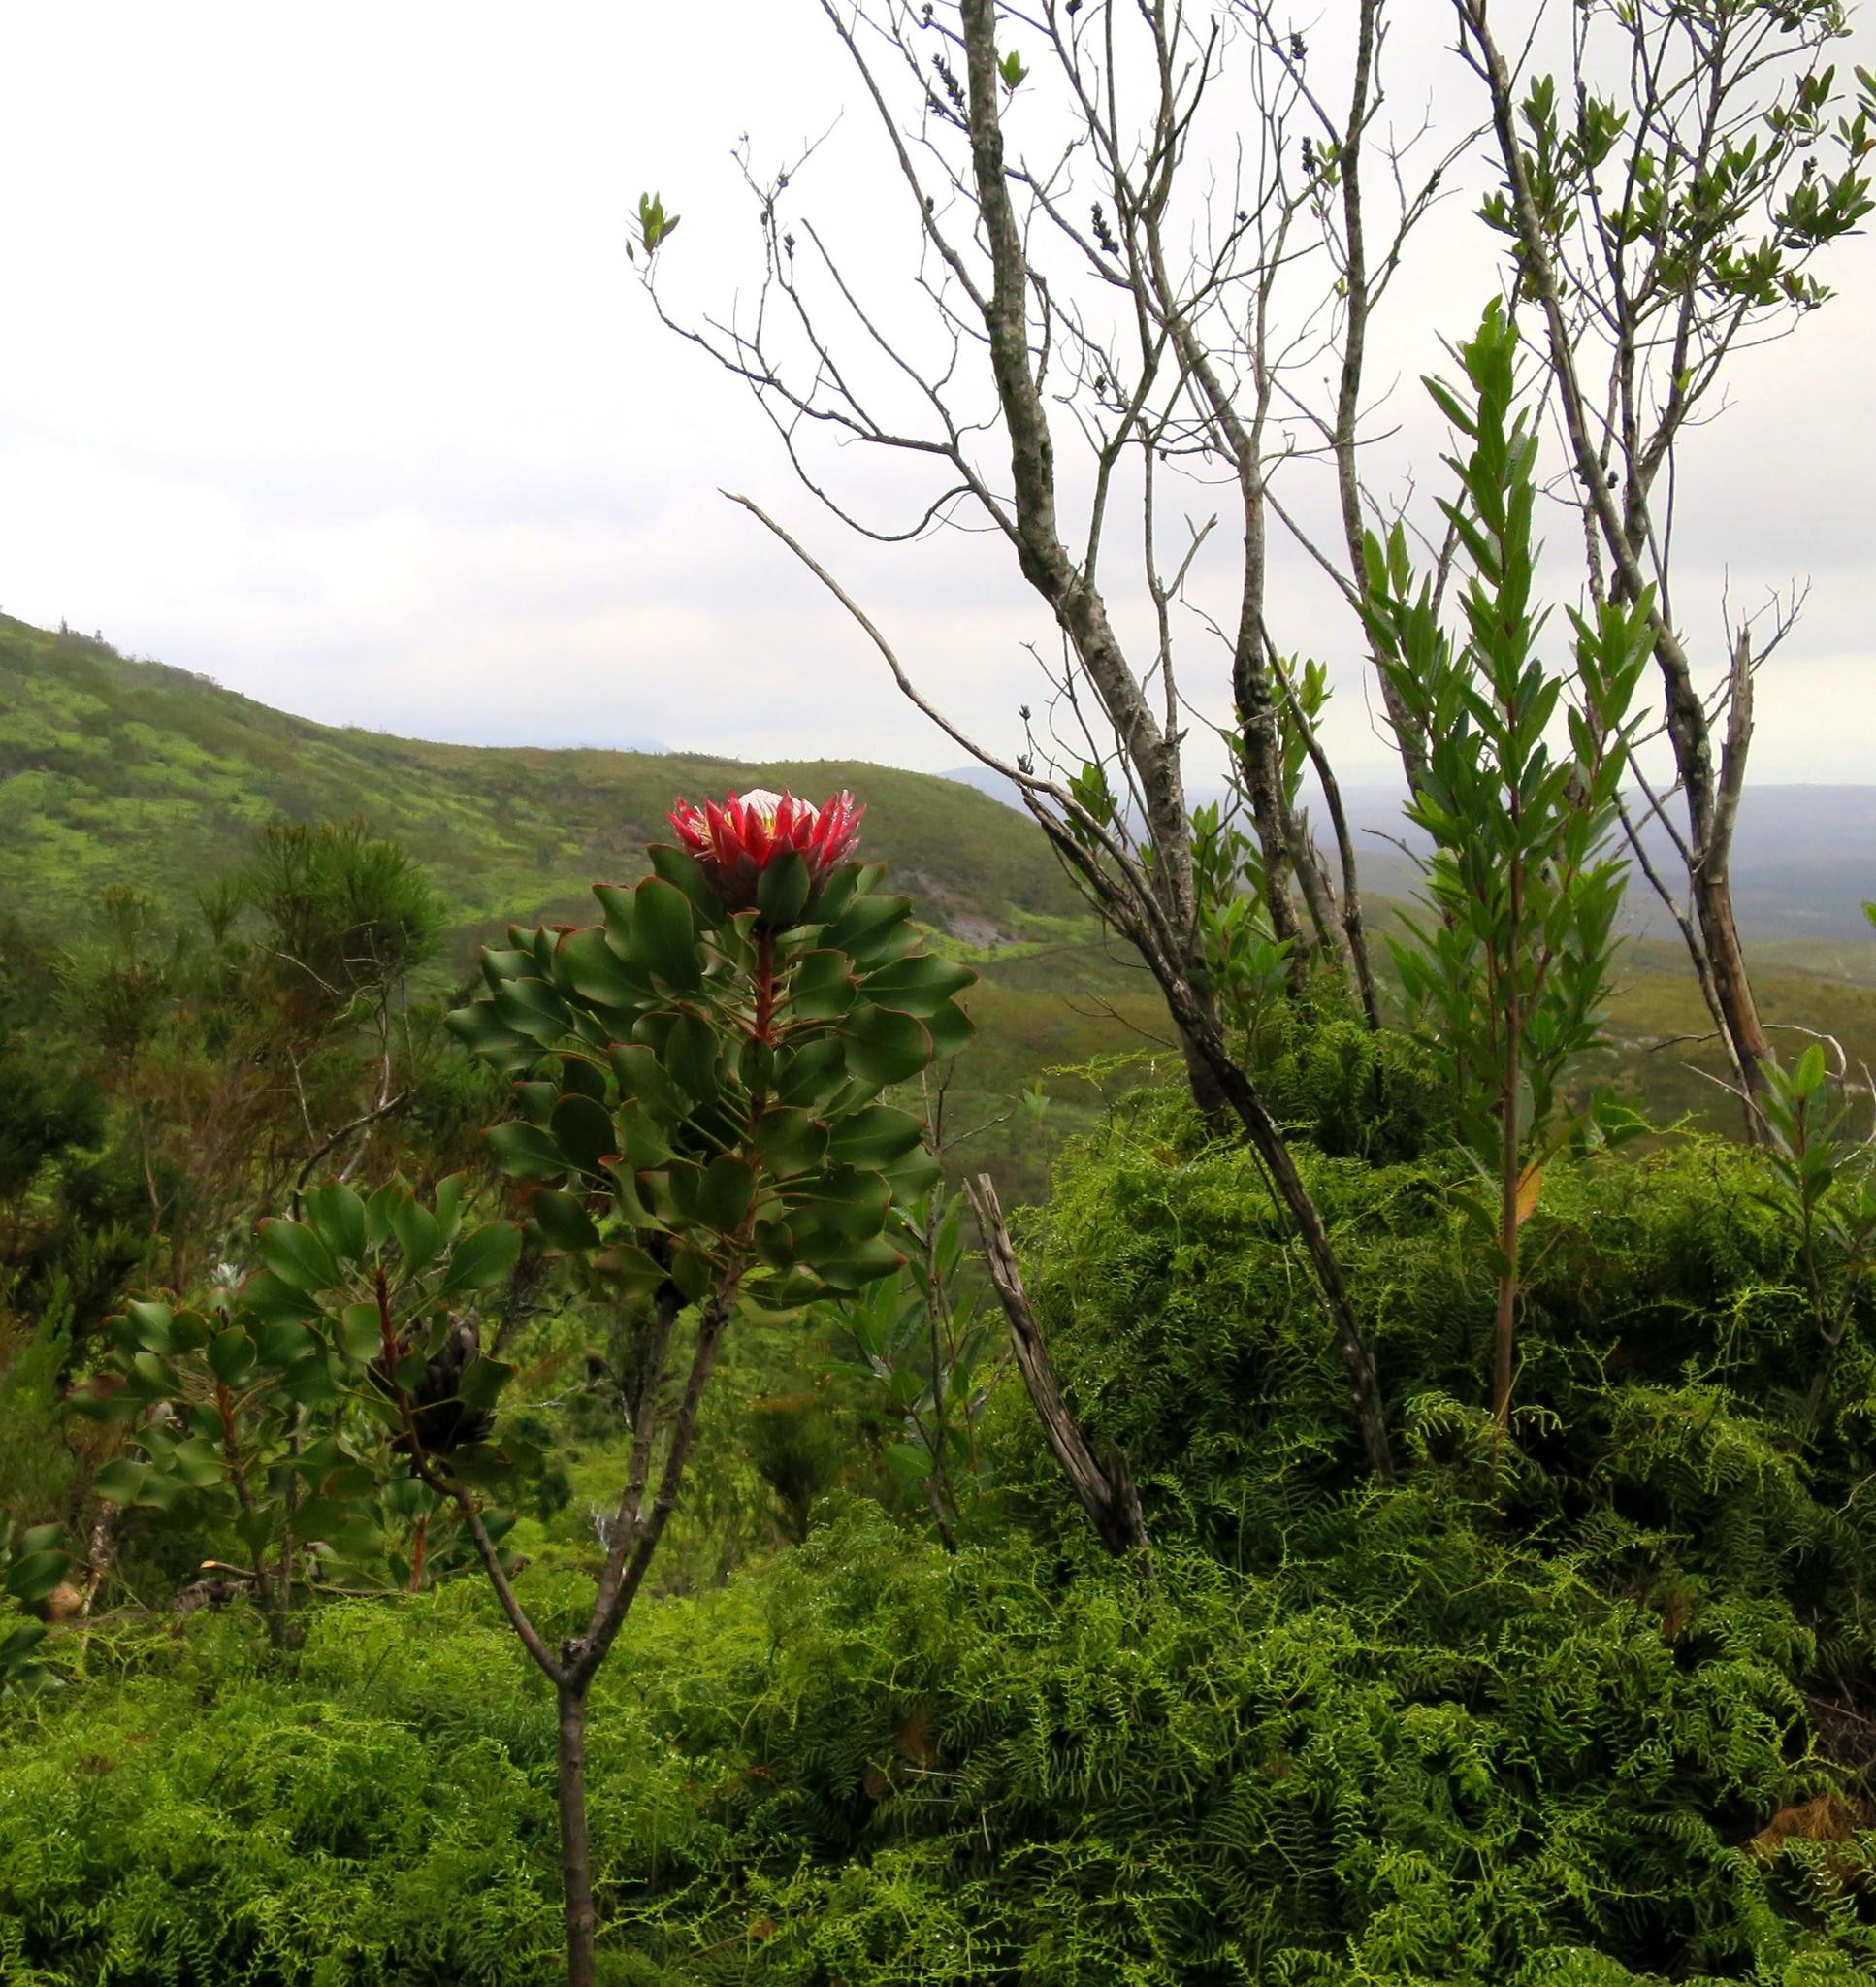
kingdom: Plantae
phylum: Tracheophyta
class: Magnoliopsida
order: Proteales
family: Proteaceae
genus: Protea
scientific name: Protea cynaroides
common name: King protea
